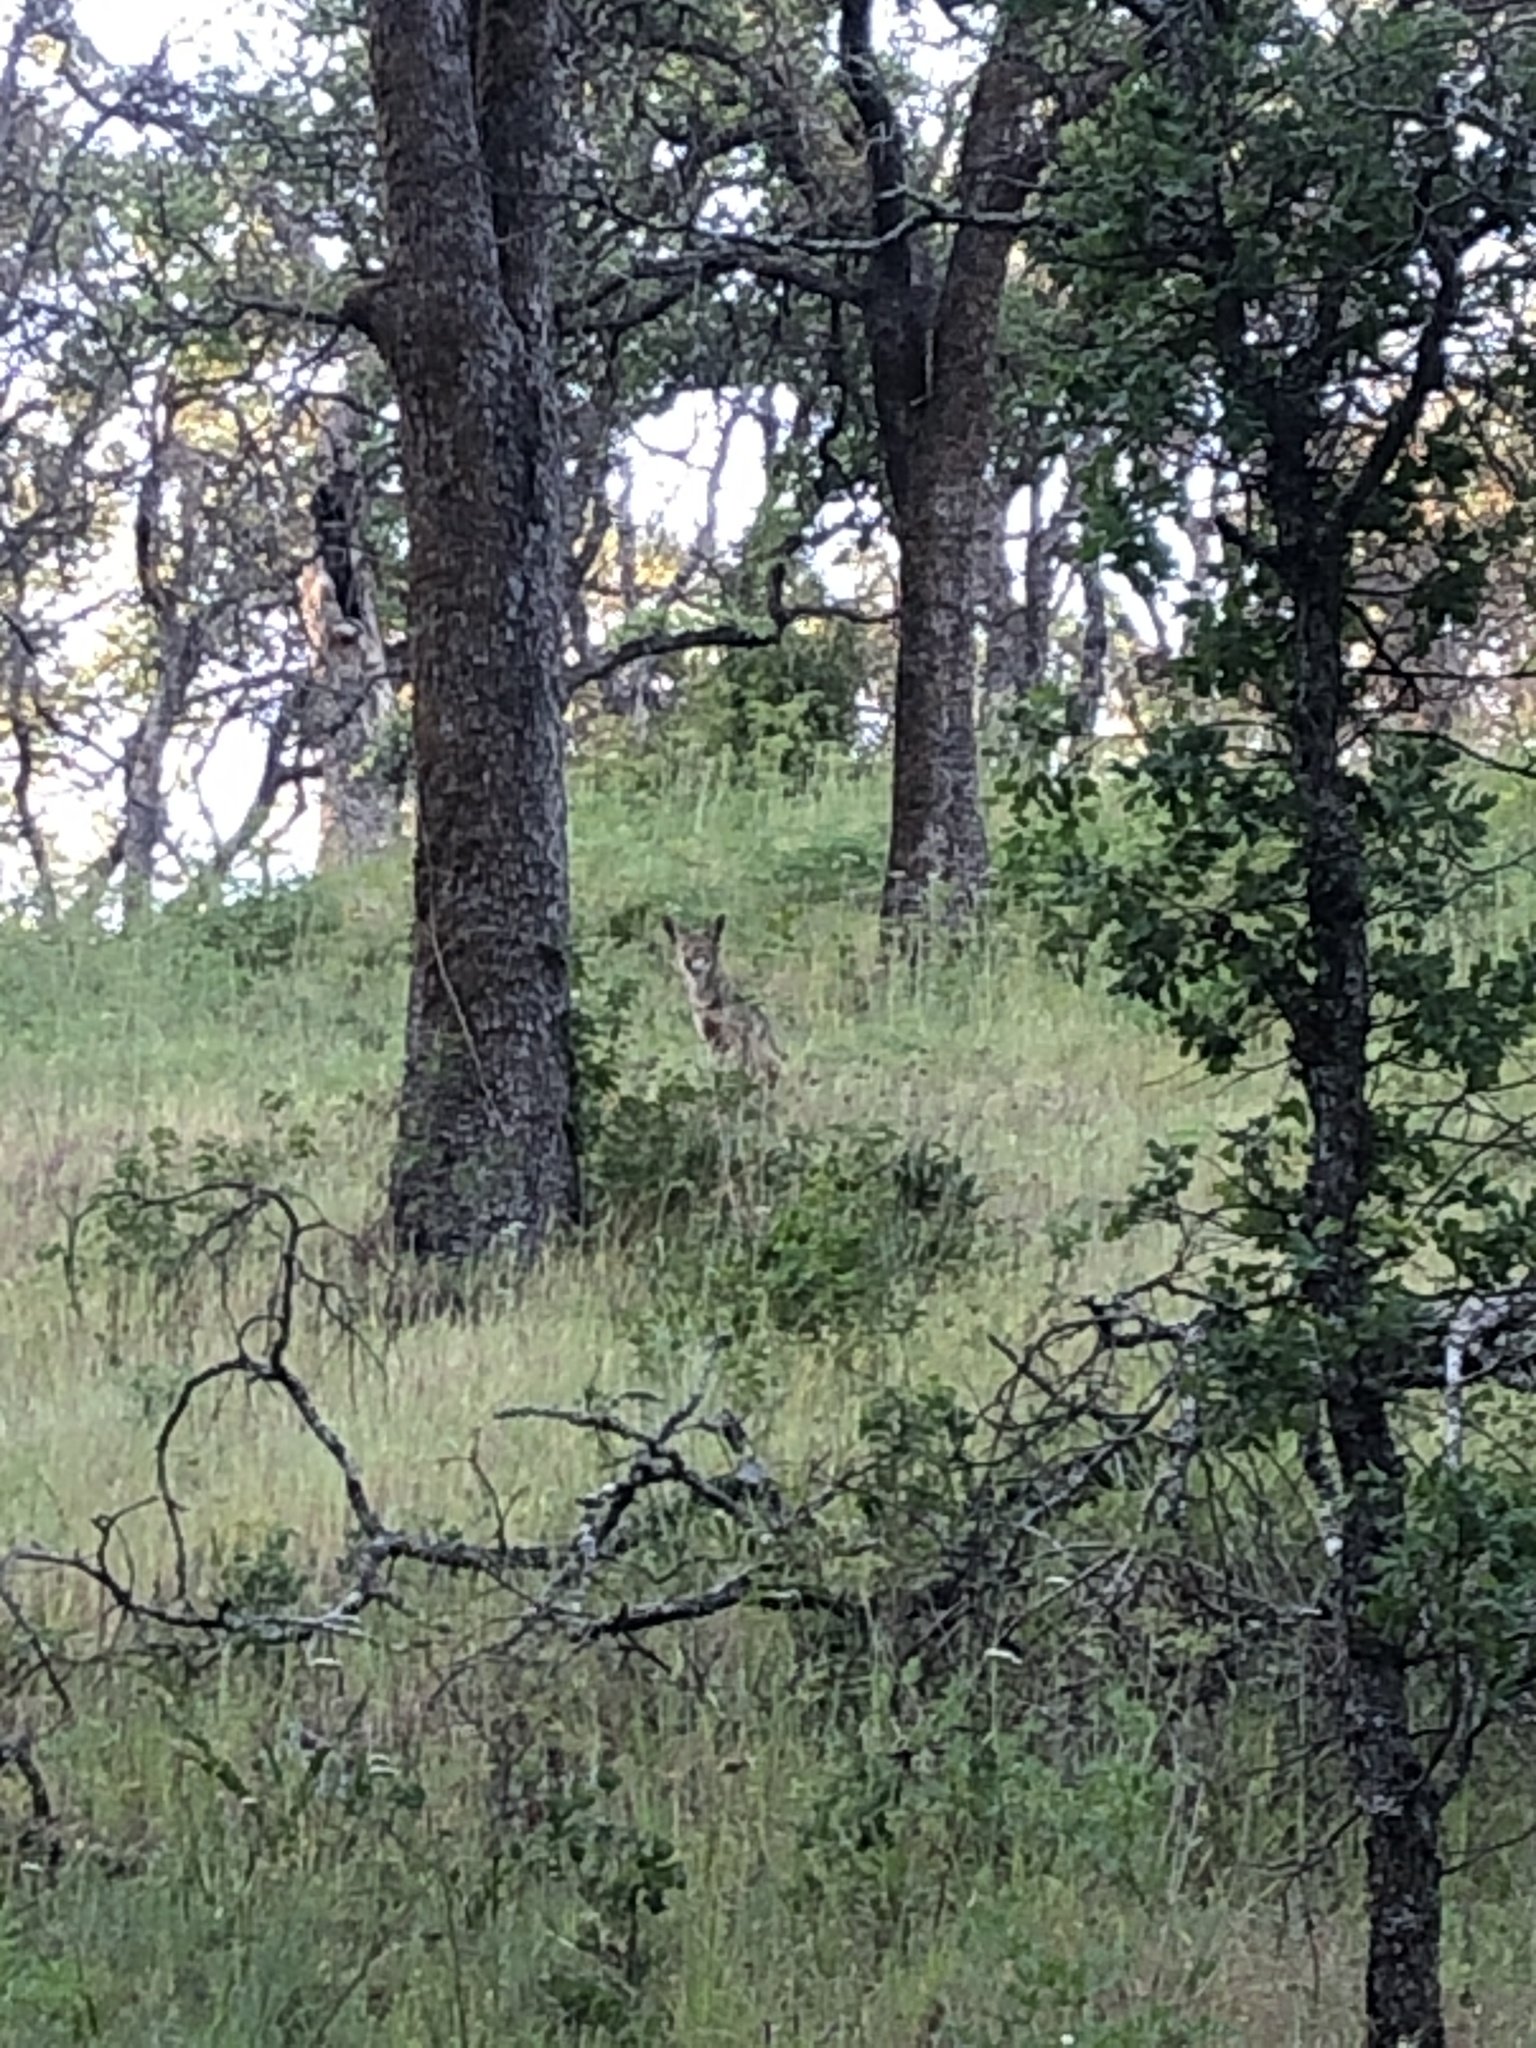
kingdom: Animalia
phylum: Chordata
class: Mammalia
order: Carnivora
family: Canidae
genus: Canis
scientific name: Canis latrans
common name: Coyote
